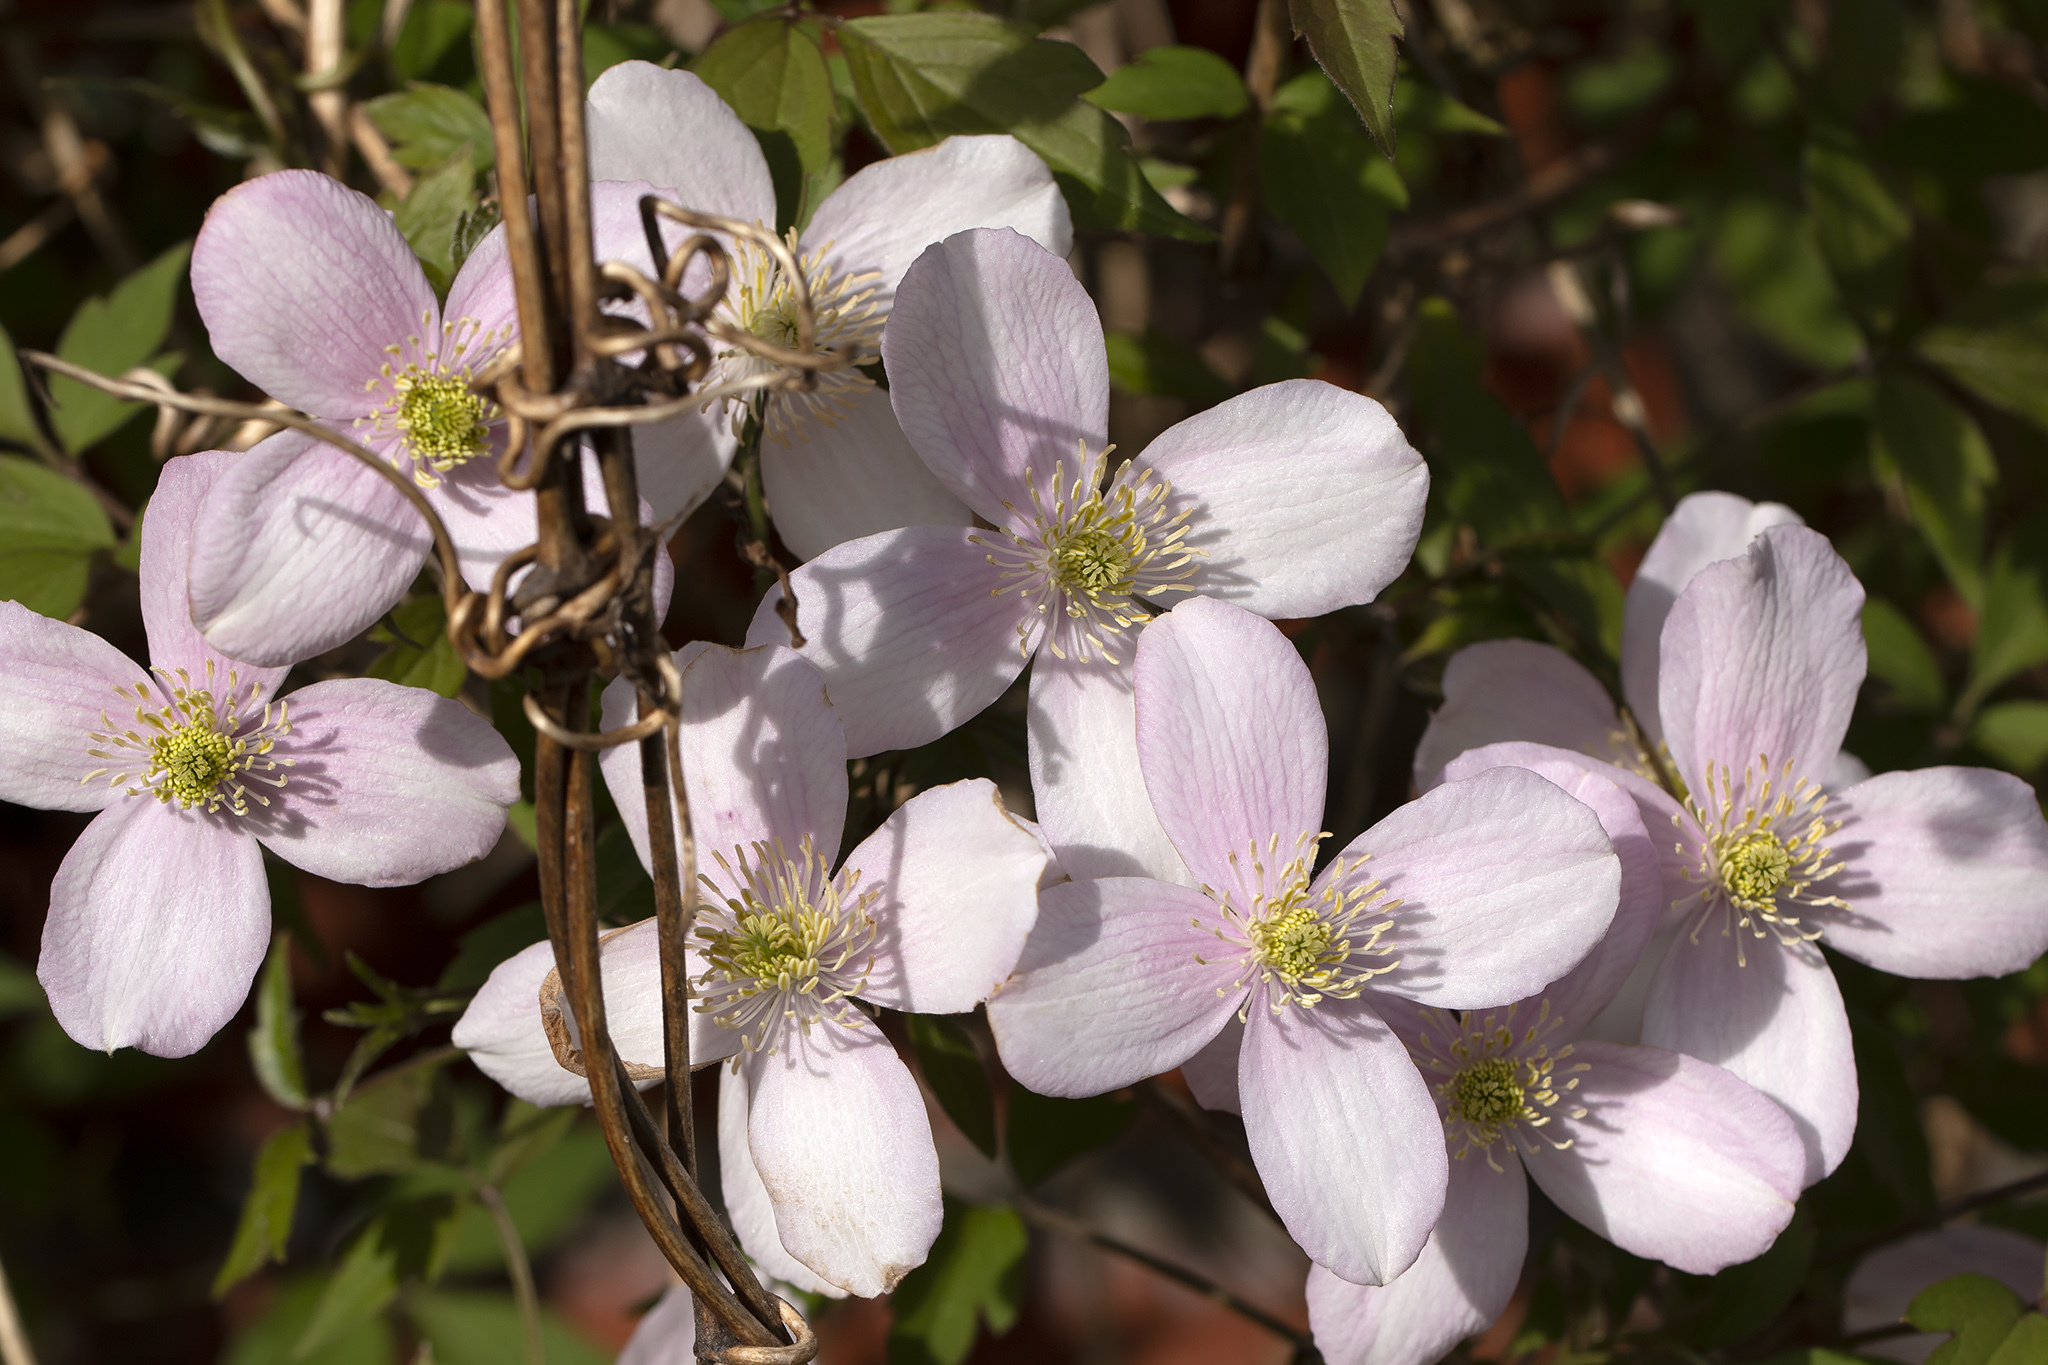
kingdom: Plantae
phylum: Tracheophyta
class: Magnoliopsida
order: Ranunculales
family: Ranunculaceae
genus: Clematis
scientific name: Clematis montana
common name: Himalayan clematis
